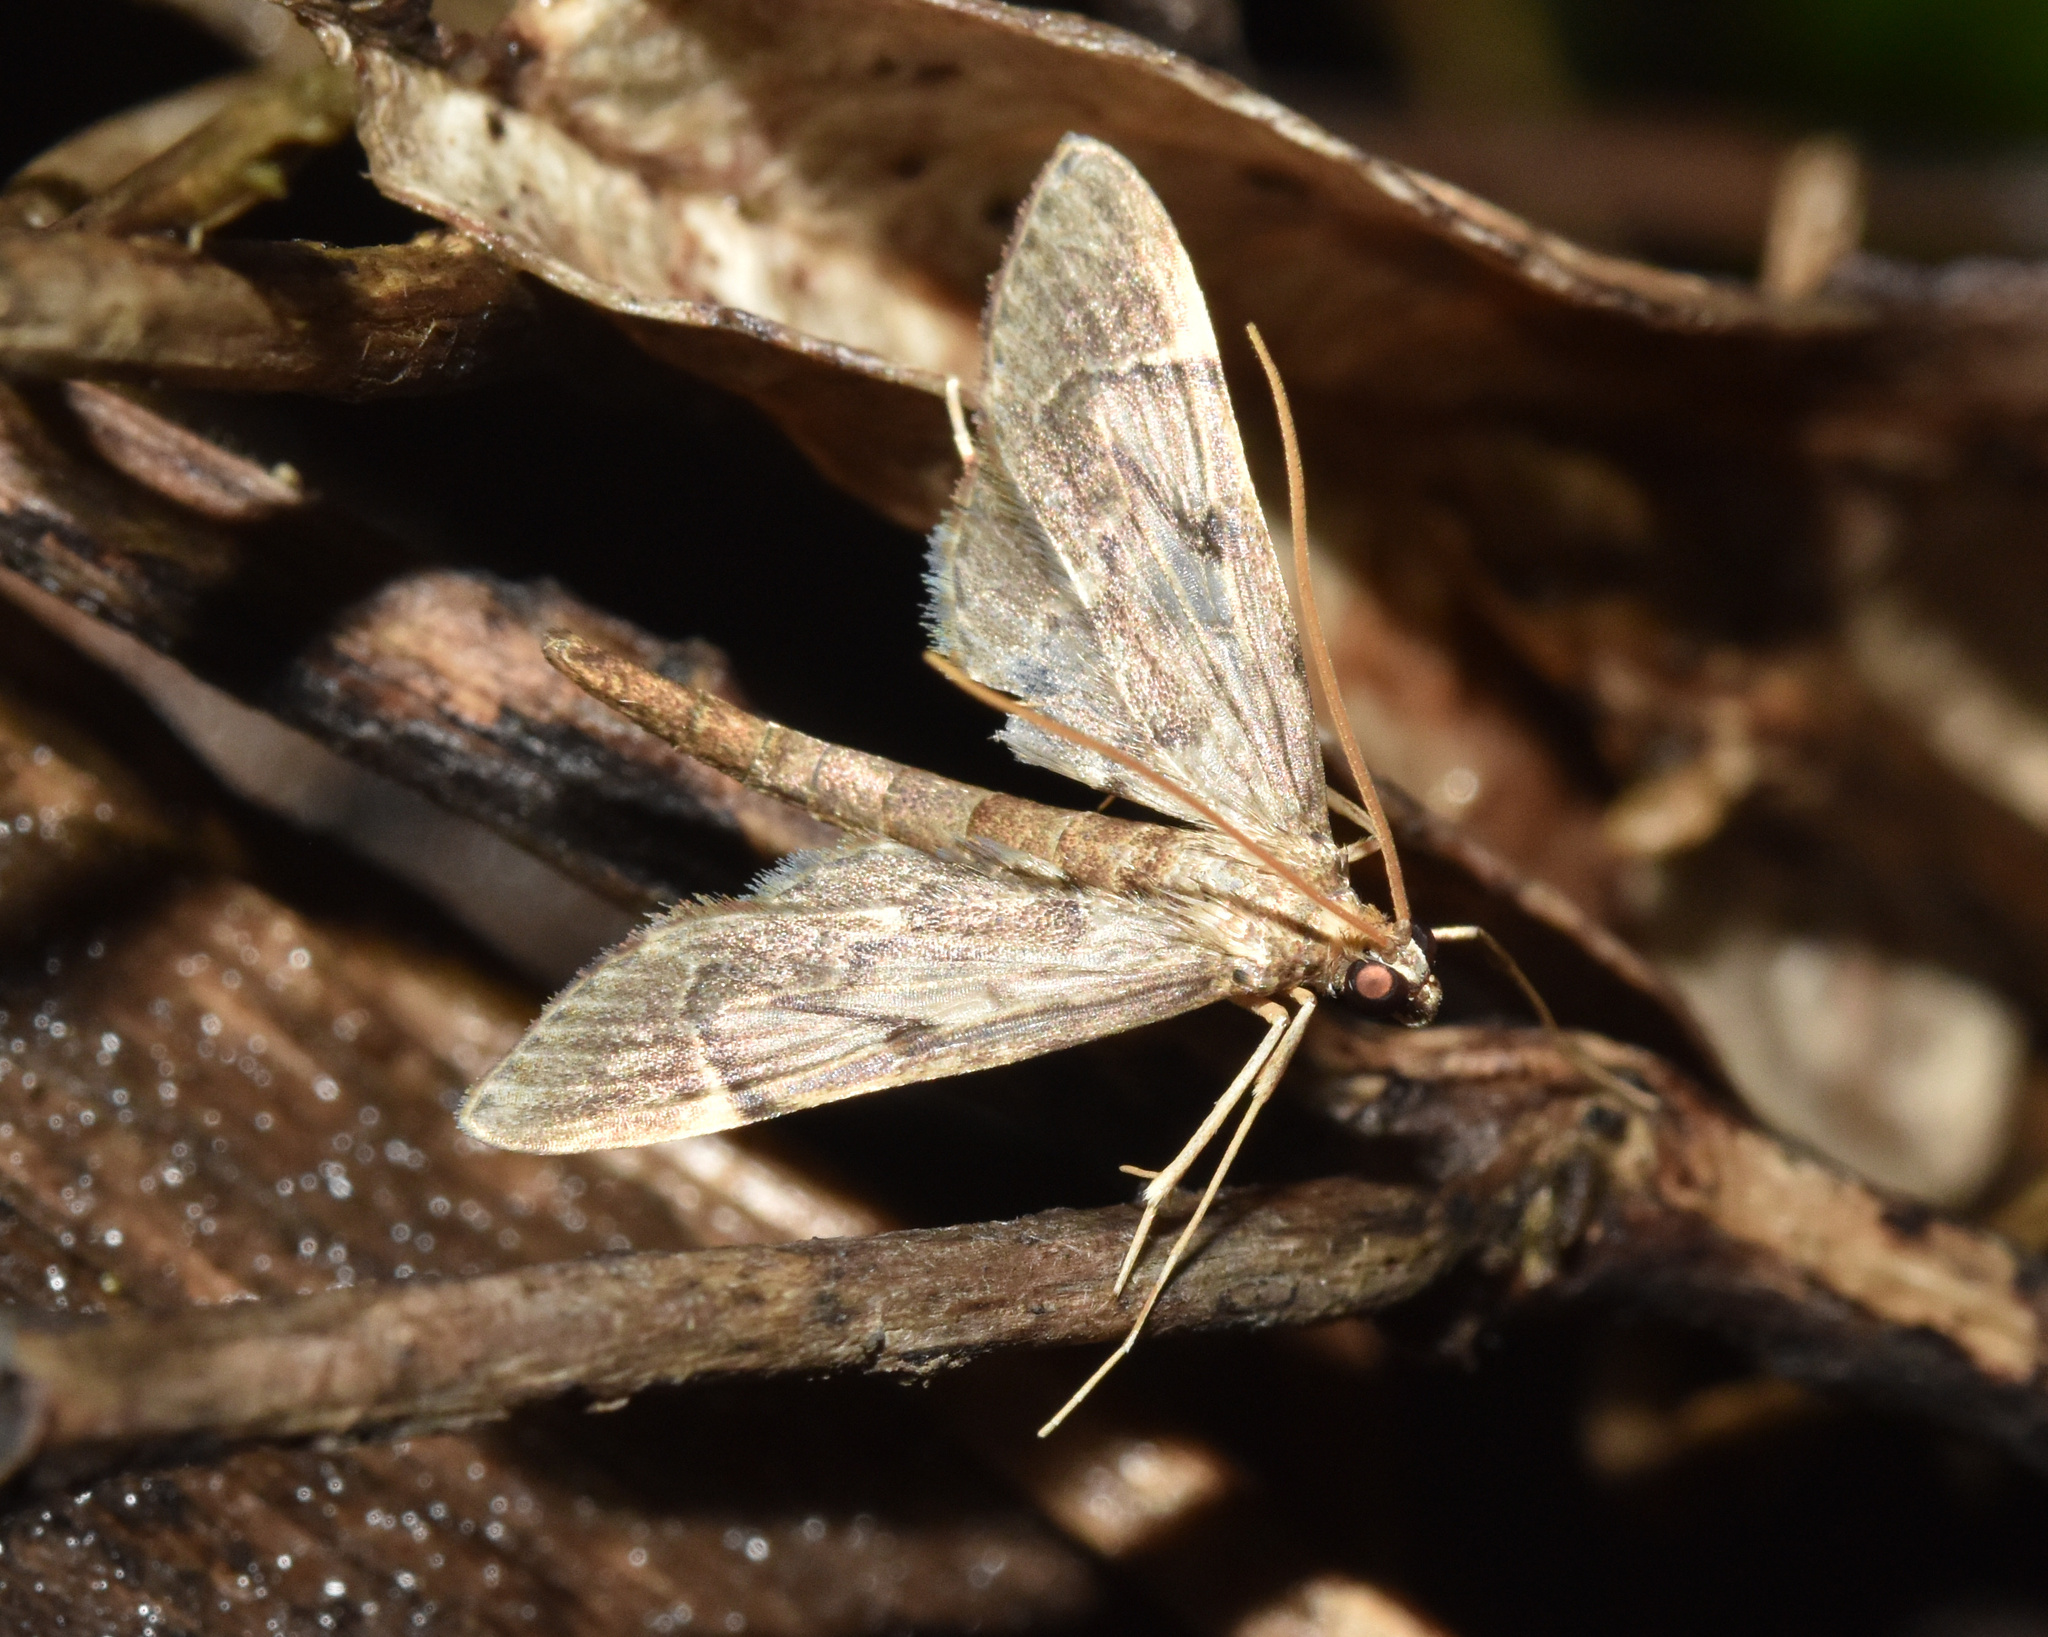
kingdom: Animalia
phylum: Arthropoda
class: Insecta
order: Lepidoptera
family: Crambidae
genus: Duponchelia
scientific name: Duponchelia lanceolalis
